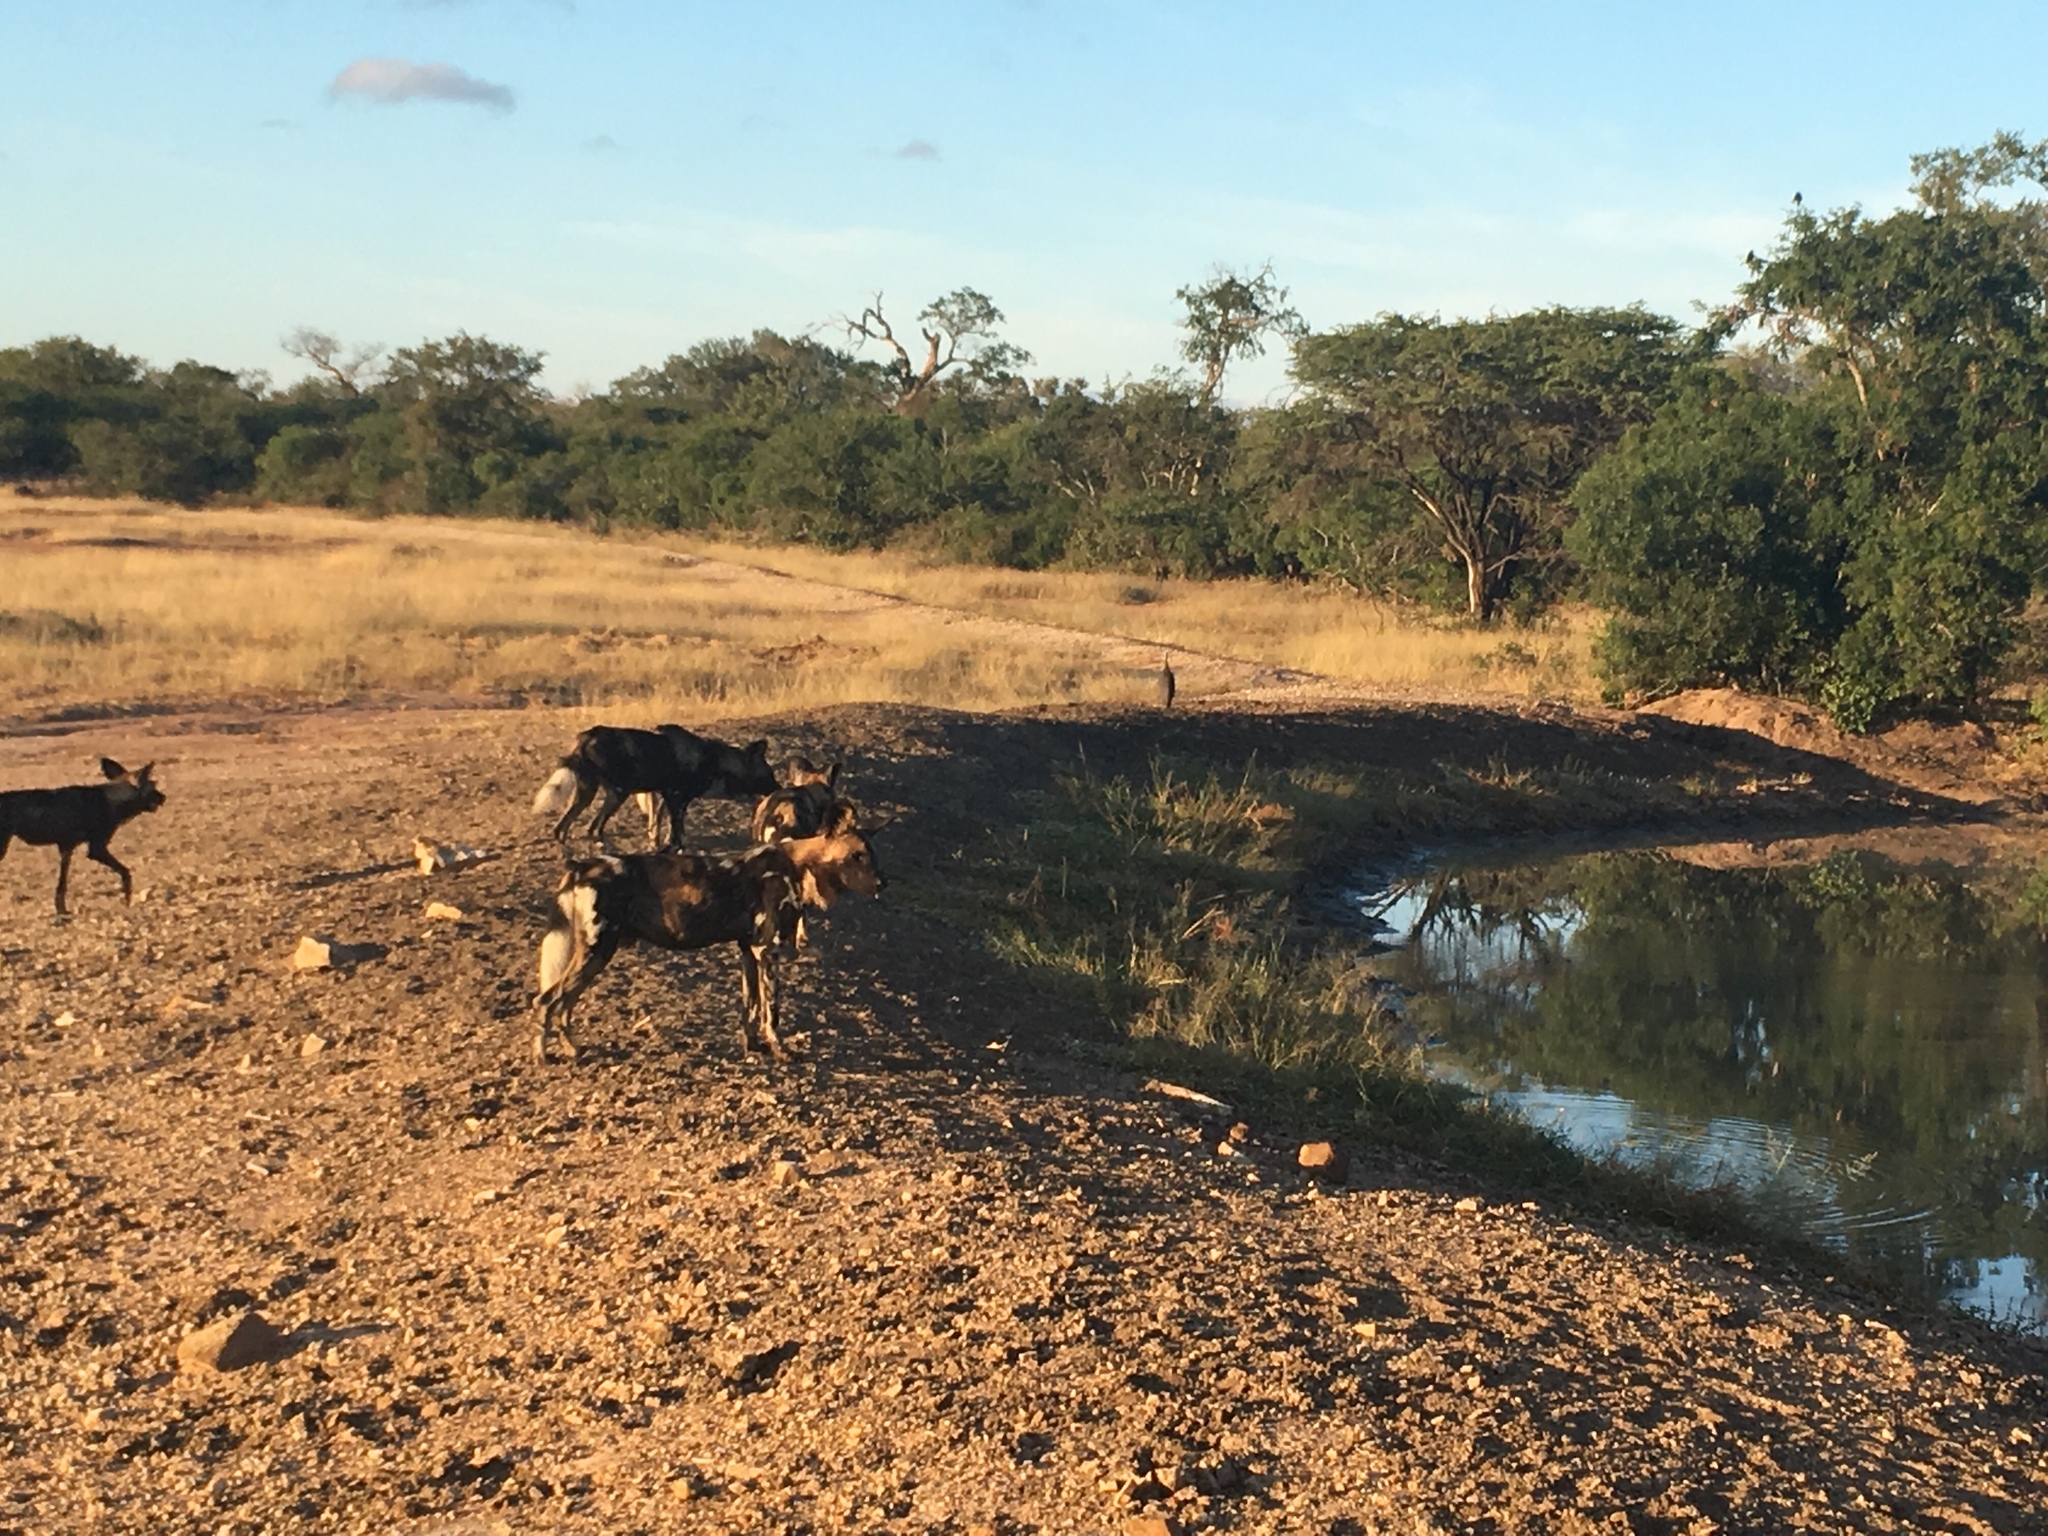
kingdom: Animalia
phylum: Chordata
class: Mammalia
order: Carnivora
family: Canidae
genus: Lycaon
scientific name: Lycaon pictus
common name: African wild dog
